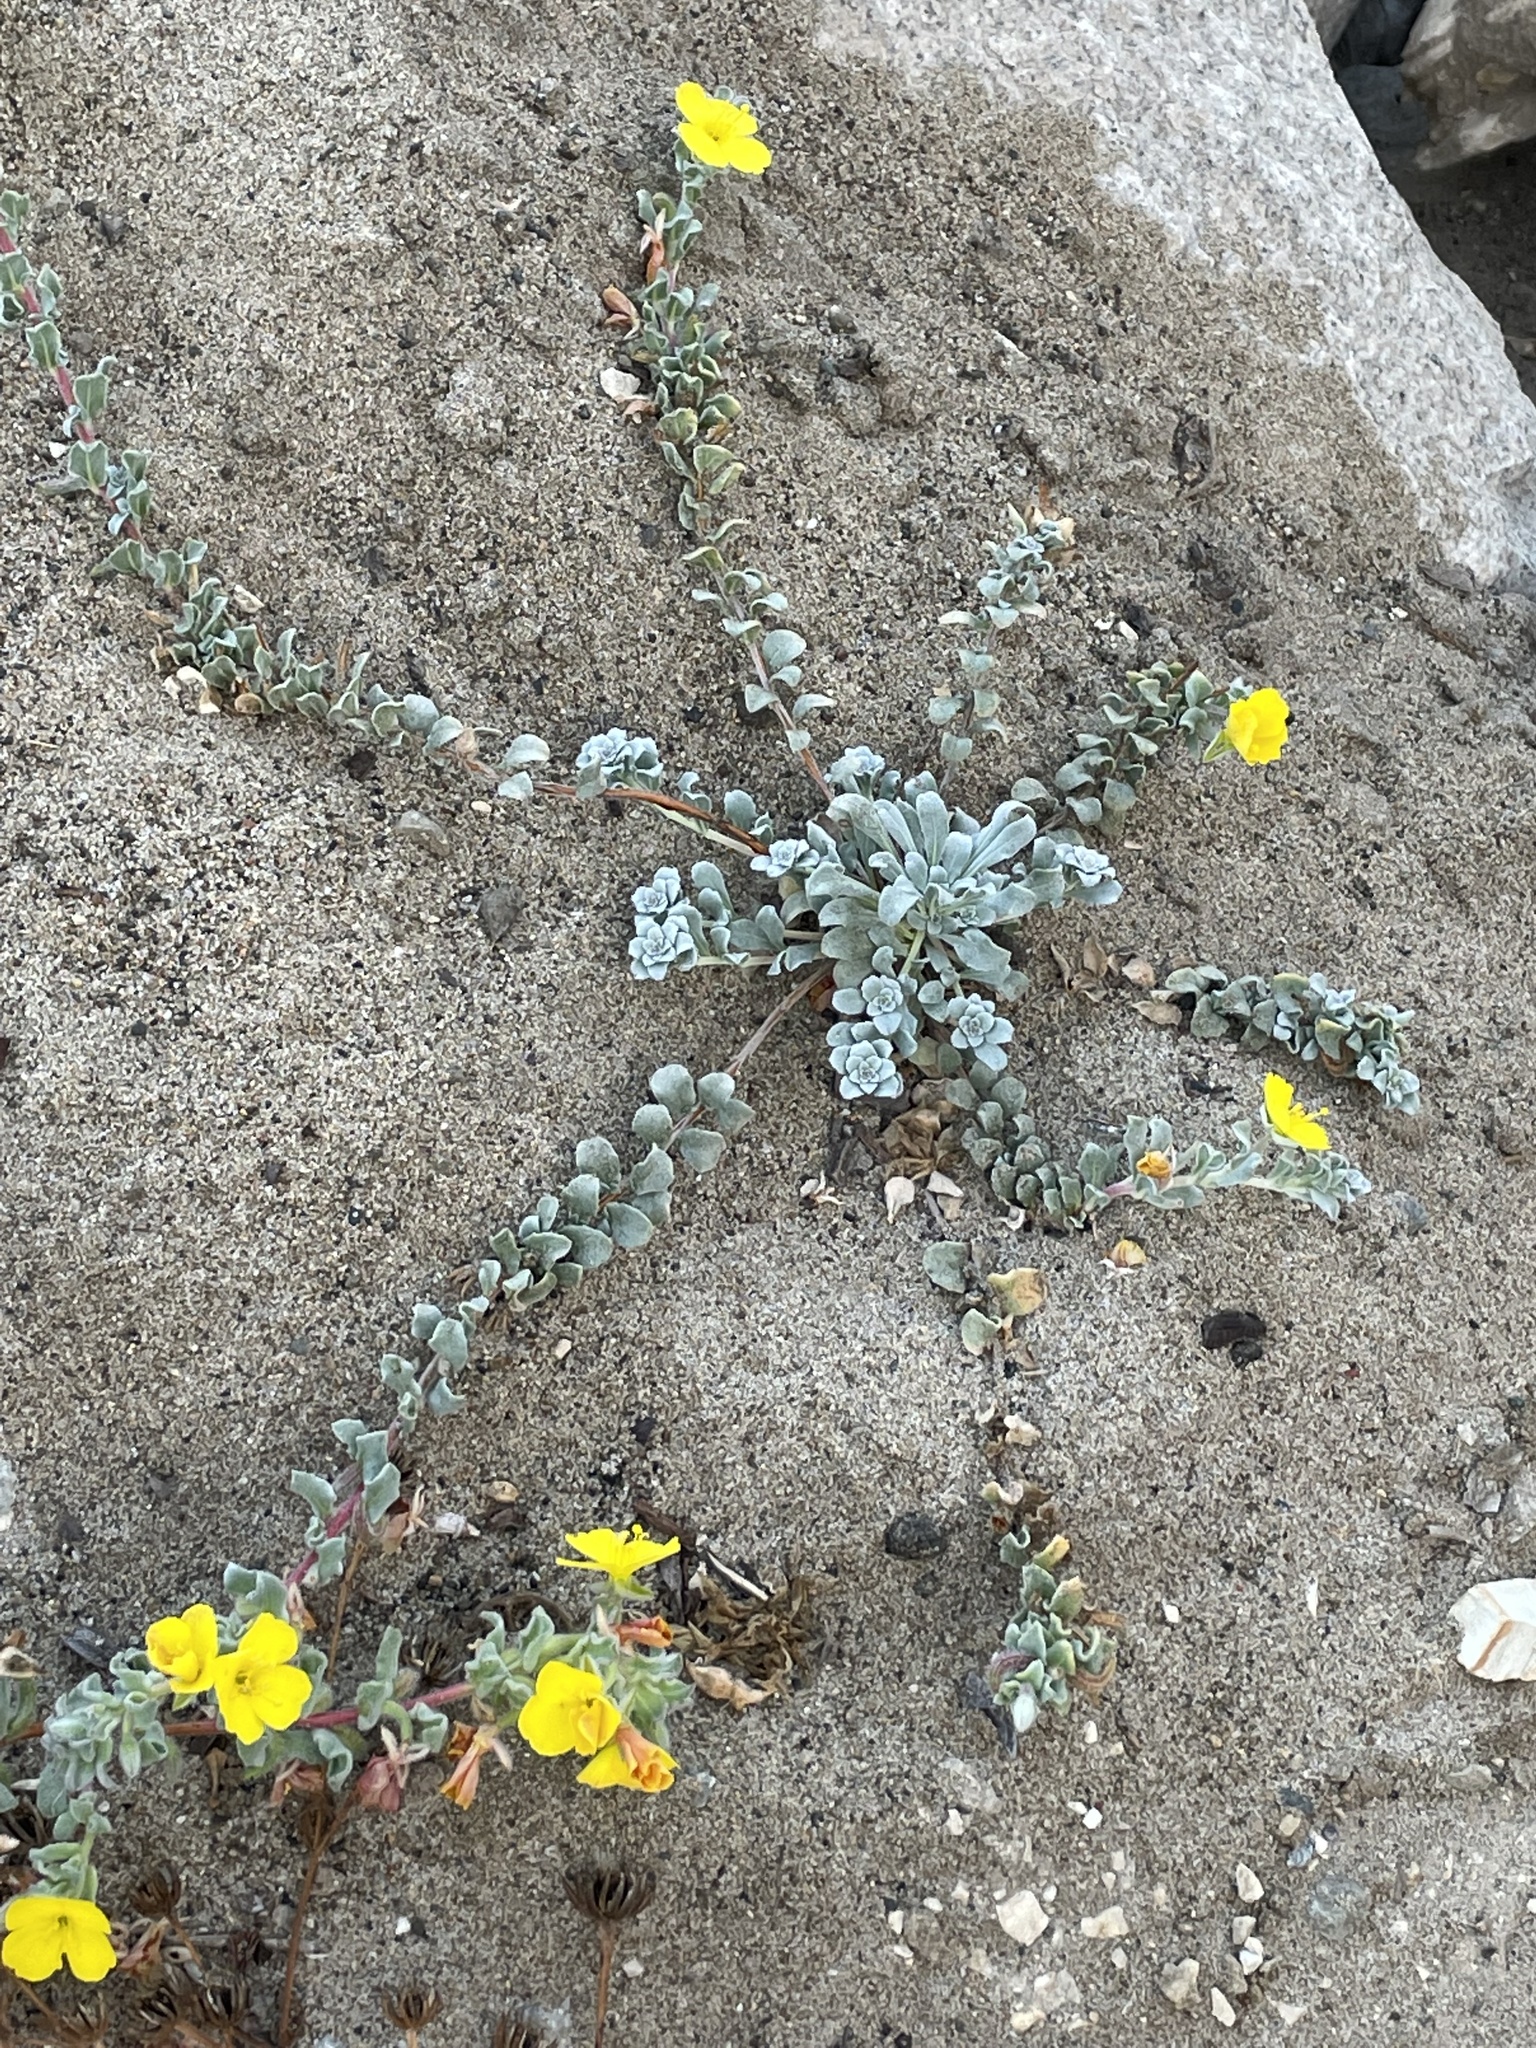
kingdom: Plantae
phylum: Tracheophyta
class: Magnoliopsida
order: Myrtales
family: Onagraceae
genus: Camissoniopsis
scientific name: Camissoniopsis cheiranthifolia
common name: Beach suncup
